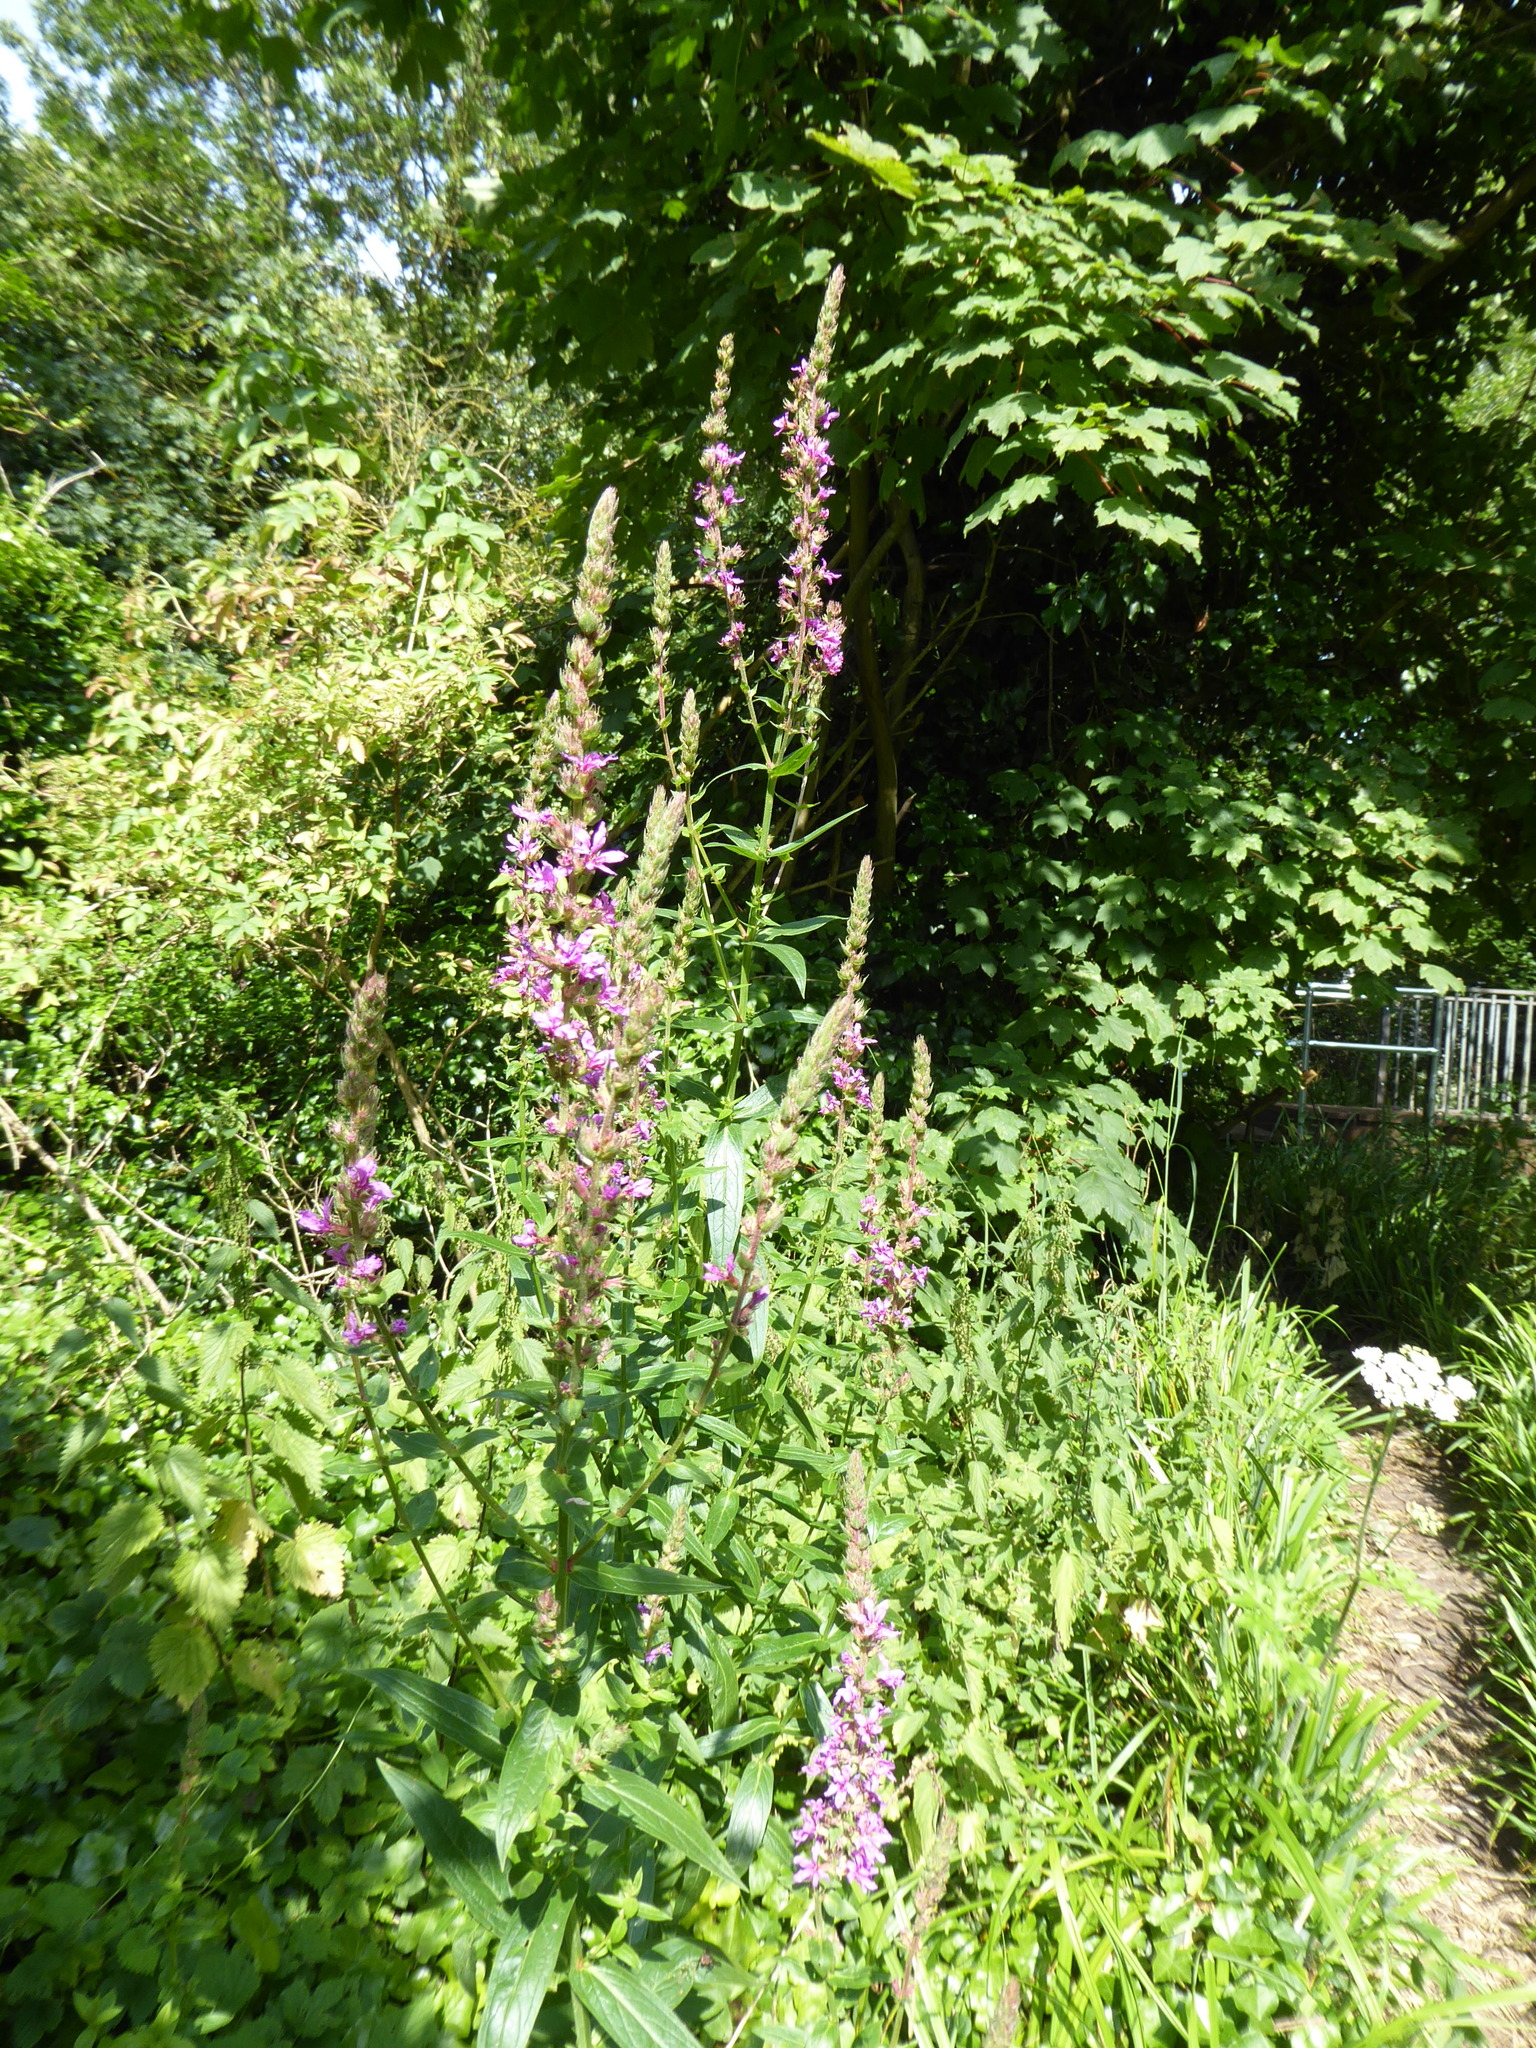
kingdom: Plantae
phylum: Tracheophyta
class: Magnoliopsida
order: Myrtales
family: Lythraceae
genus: Lythrum
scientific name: Lythrum salicaria
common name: Purple loosestrife
